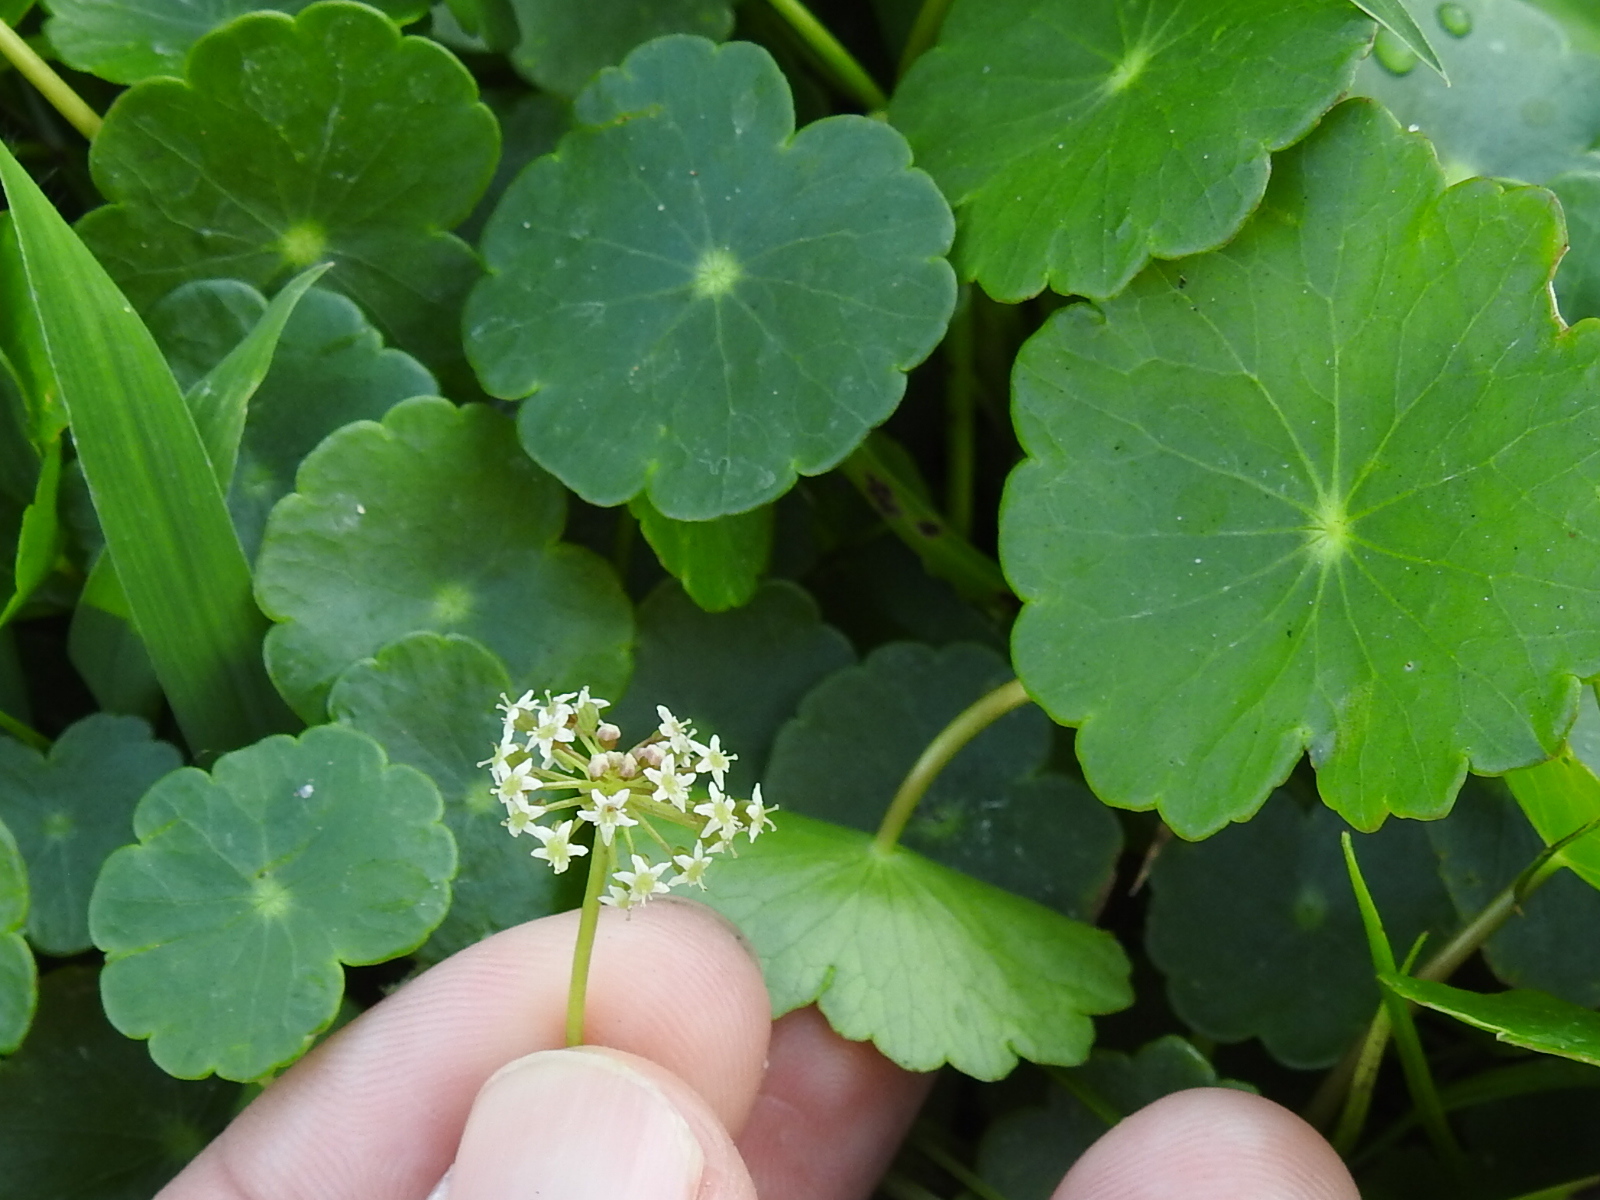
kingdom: Plantae
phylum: Tracheophyta
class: Magnoliopsida
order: Apiales
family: Araliaceae
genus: Hydrocotyle
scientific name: Hydrocotyle umbellata
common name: Water pennywort
